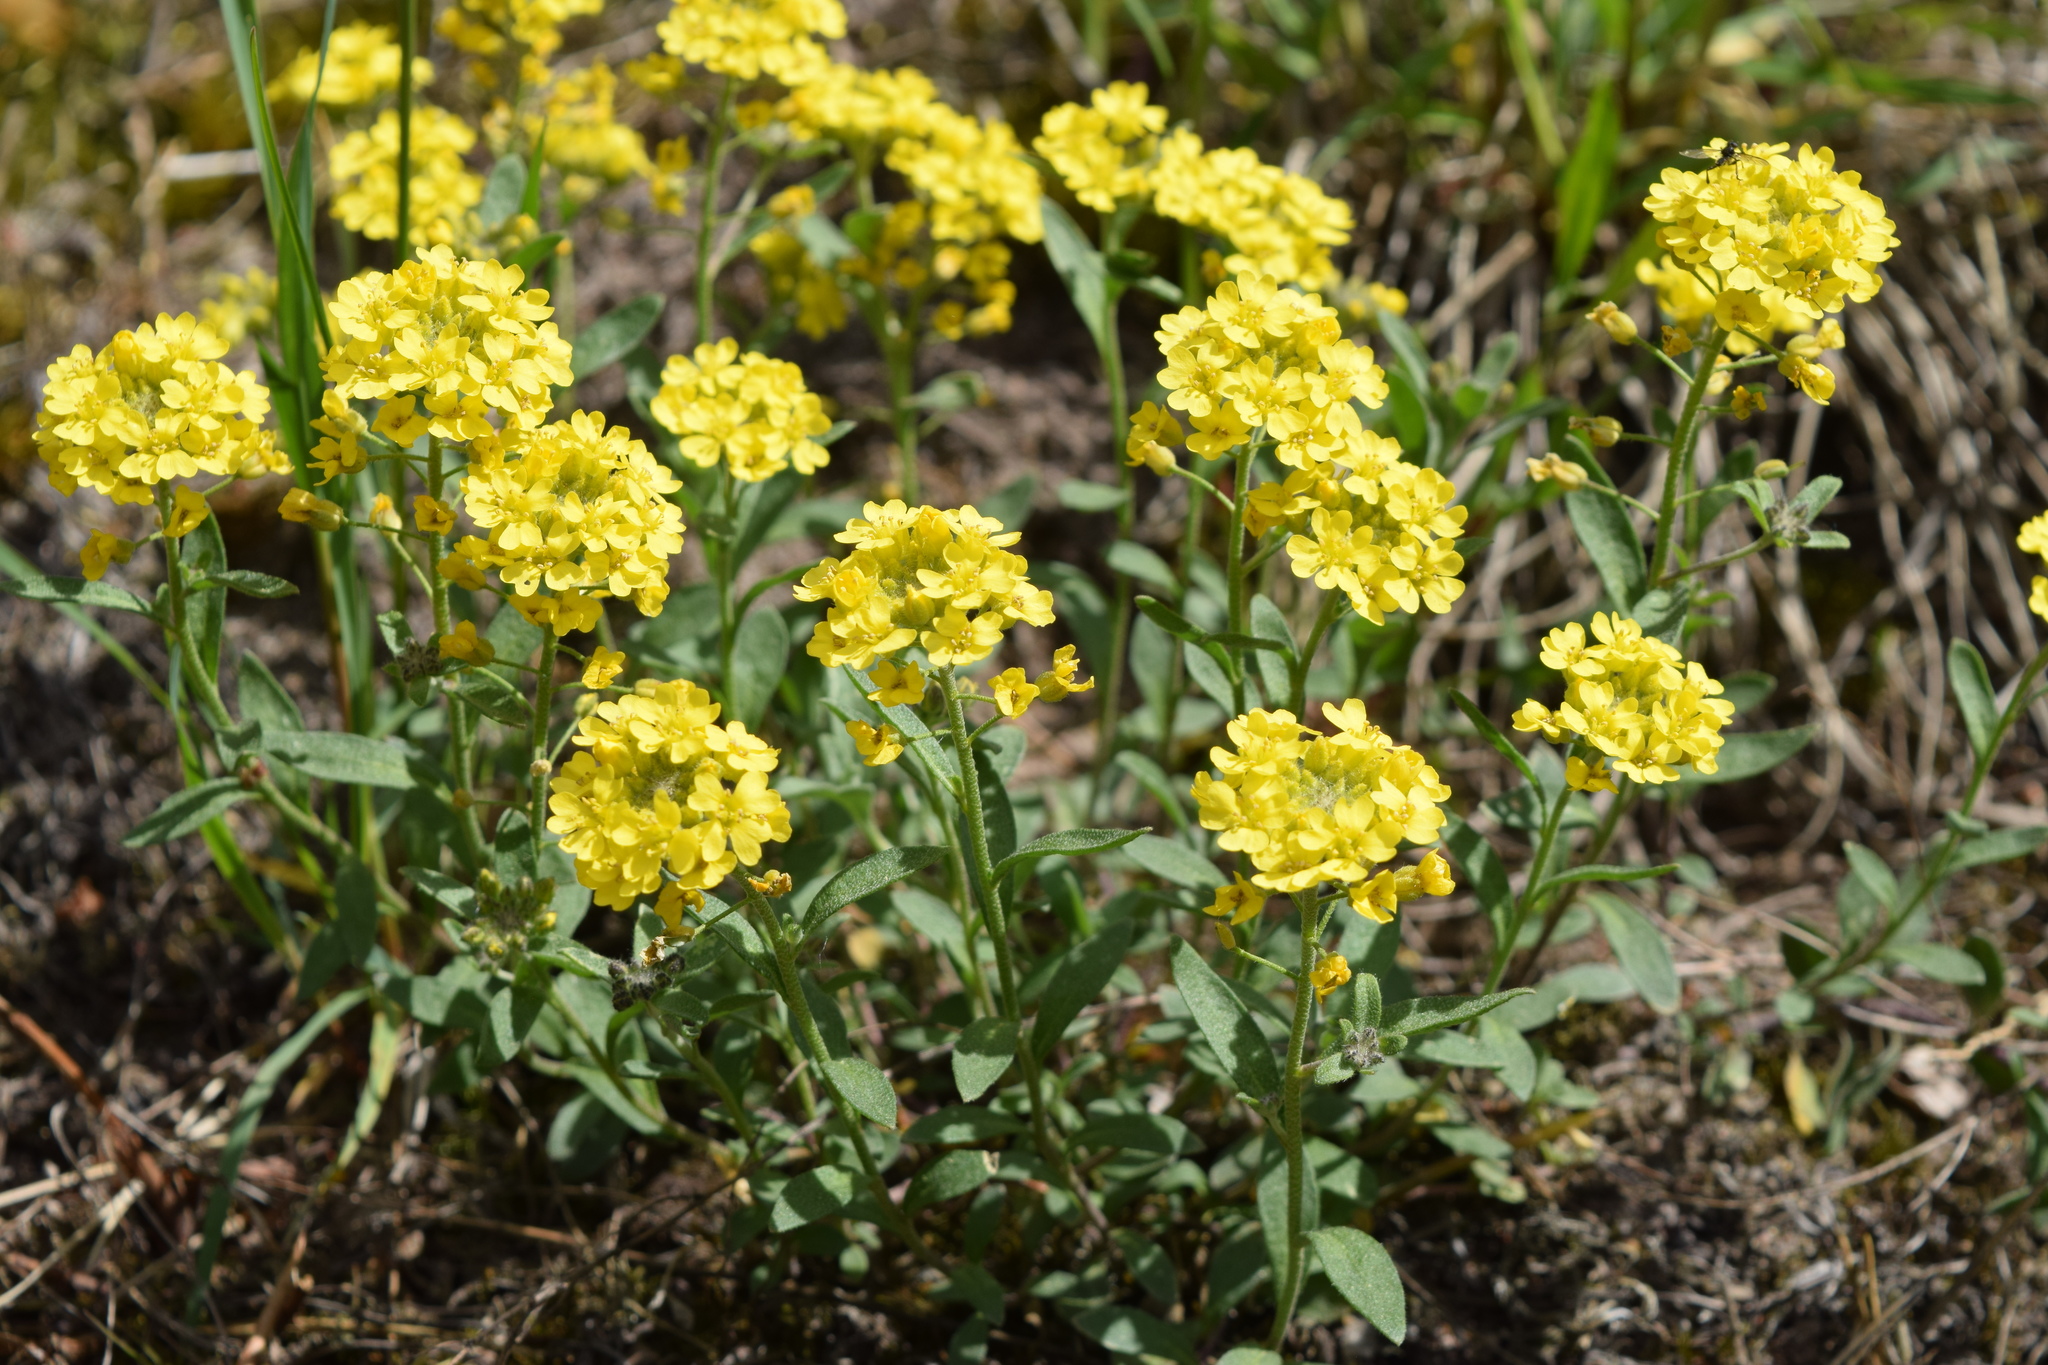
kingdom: Plantae
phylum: Tracheophyta
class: Magnoliopsida
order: Brassicales
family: Brassicaceae
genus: Alyssum
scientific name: Alyssum gmelinii
